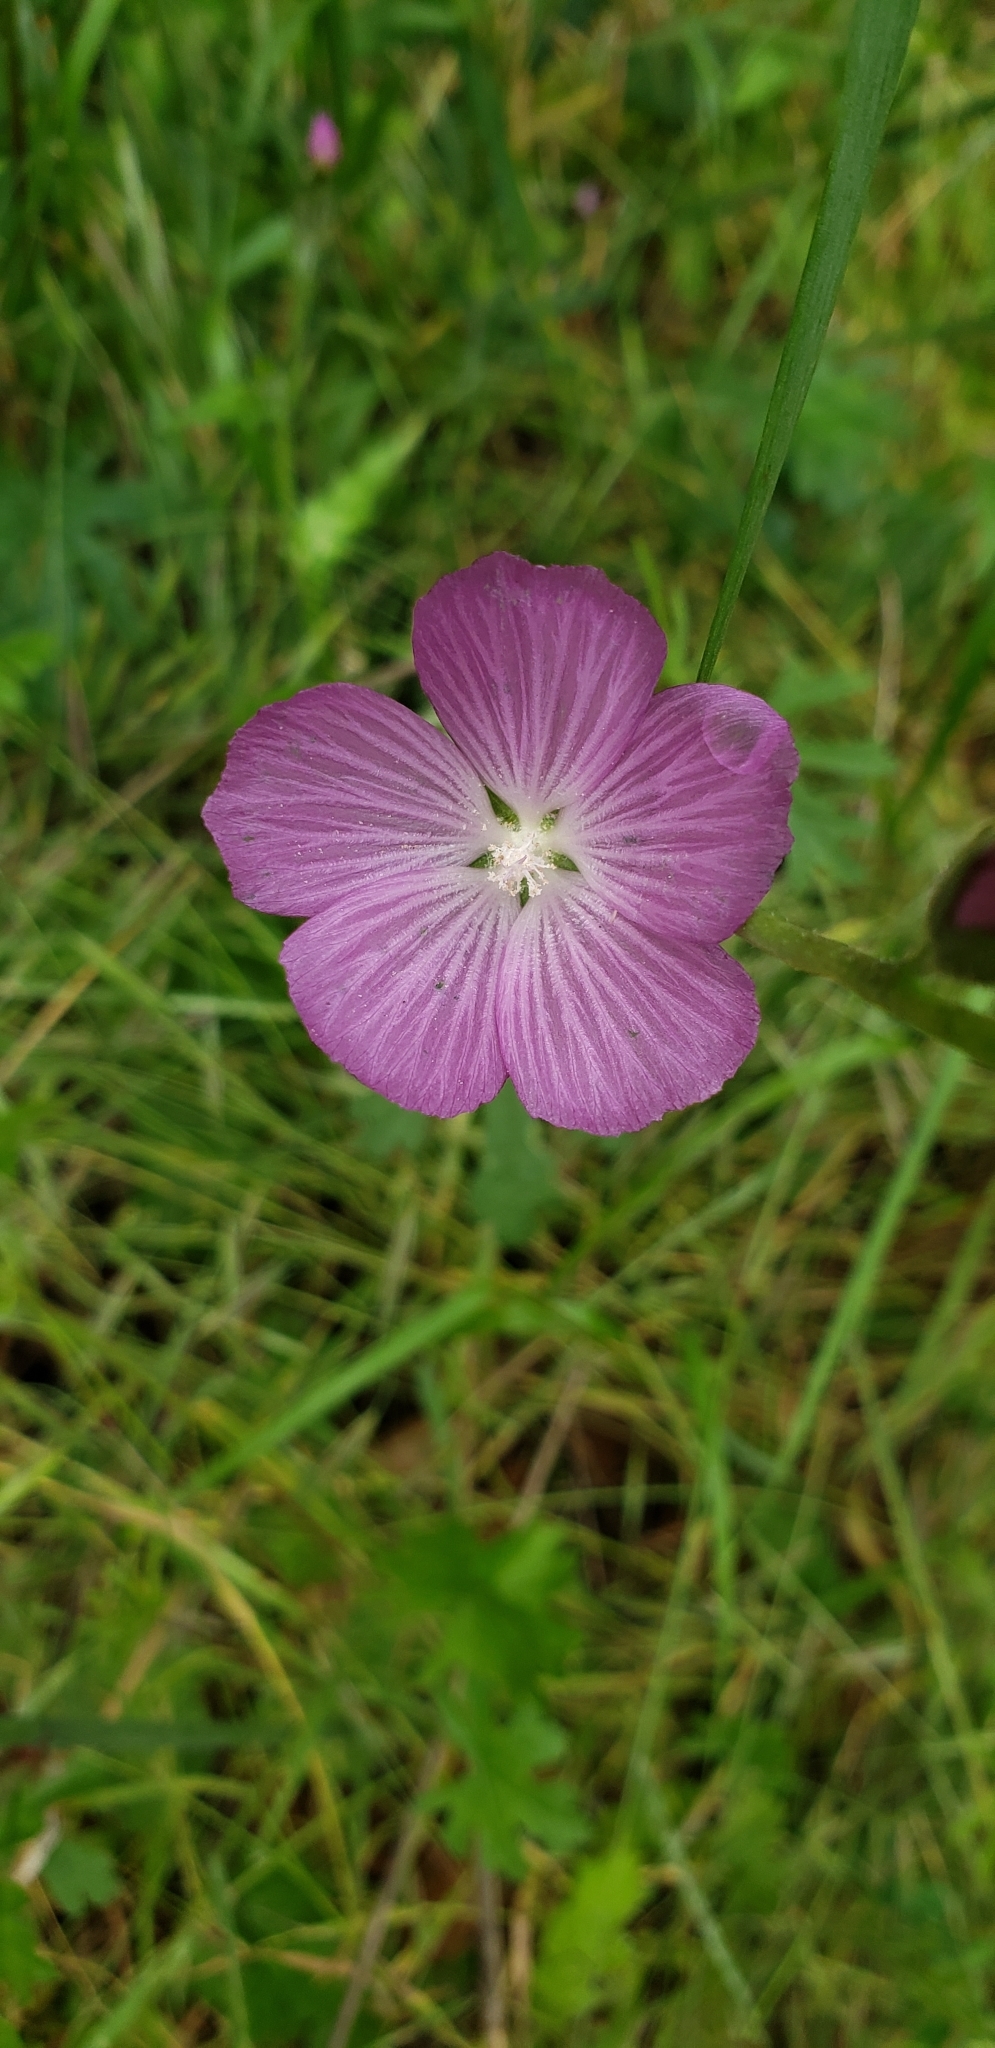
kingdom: Plantae
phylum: Tracheophyta
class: Magnoliopsida
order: Malvales
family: Malvaceae
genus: Sidalcea
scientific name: Sidalcea sparsifolia
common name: Southern checkerbloom
